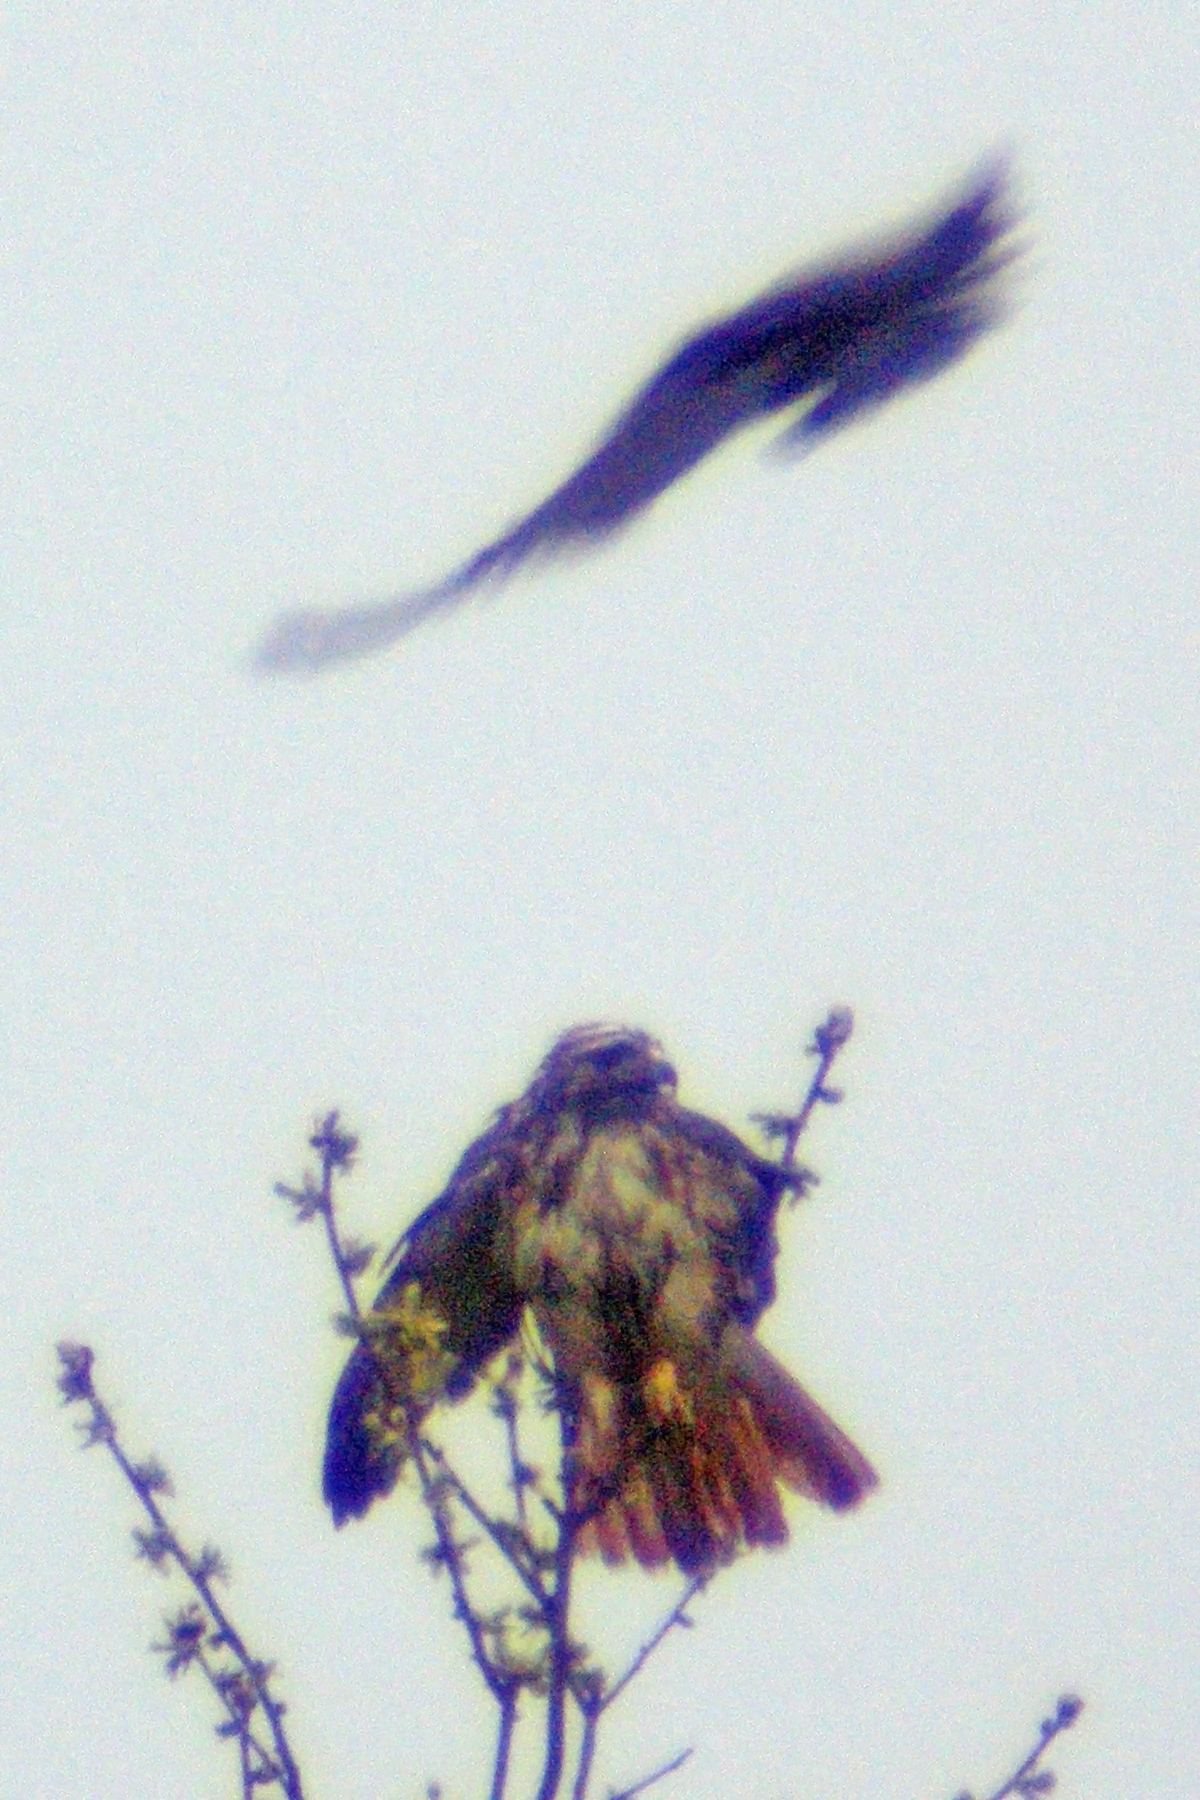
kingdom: Animalia
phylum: Chordata
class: Aves
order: Accipitriformes
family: Accipitridae
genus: Buteo
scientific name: Buteo jamaicensis
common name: Red-tailed hawk
